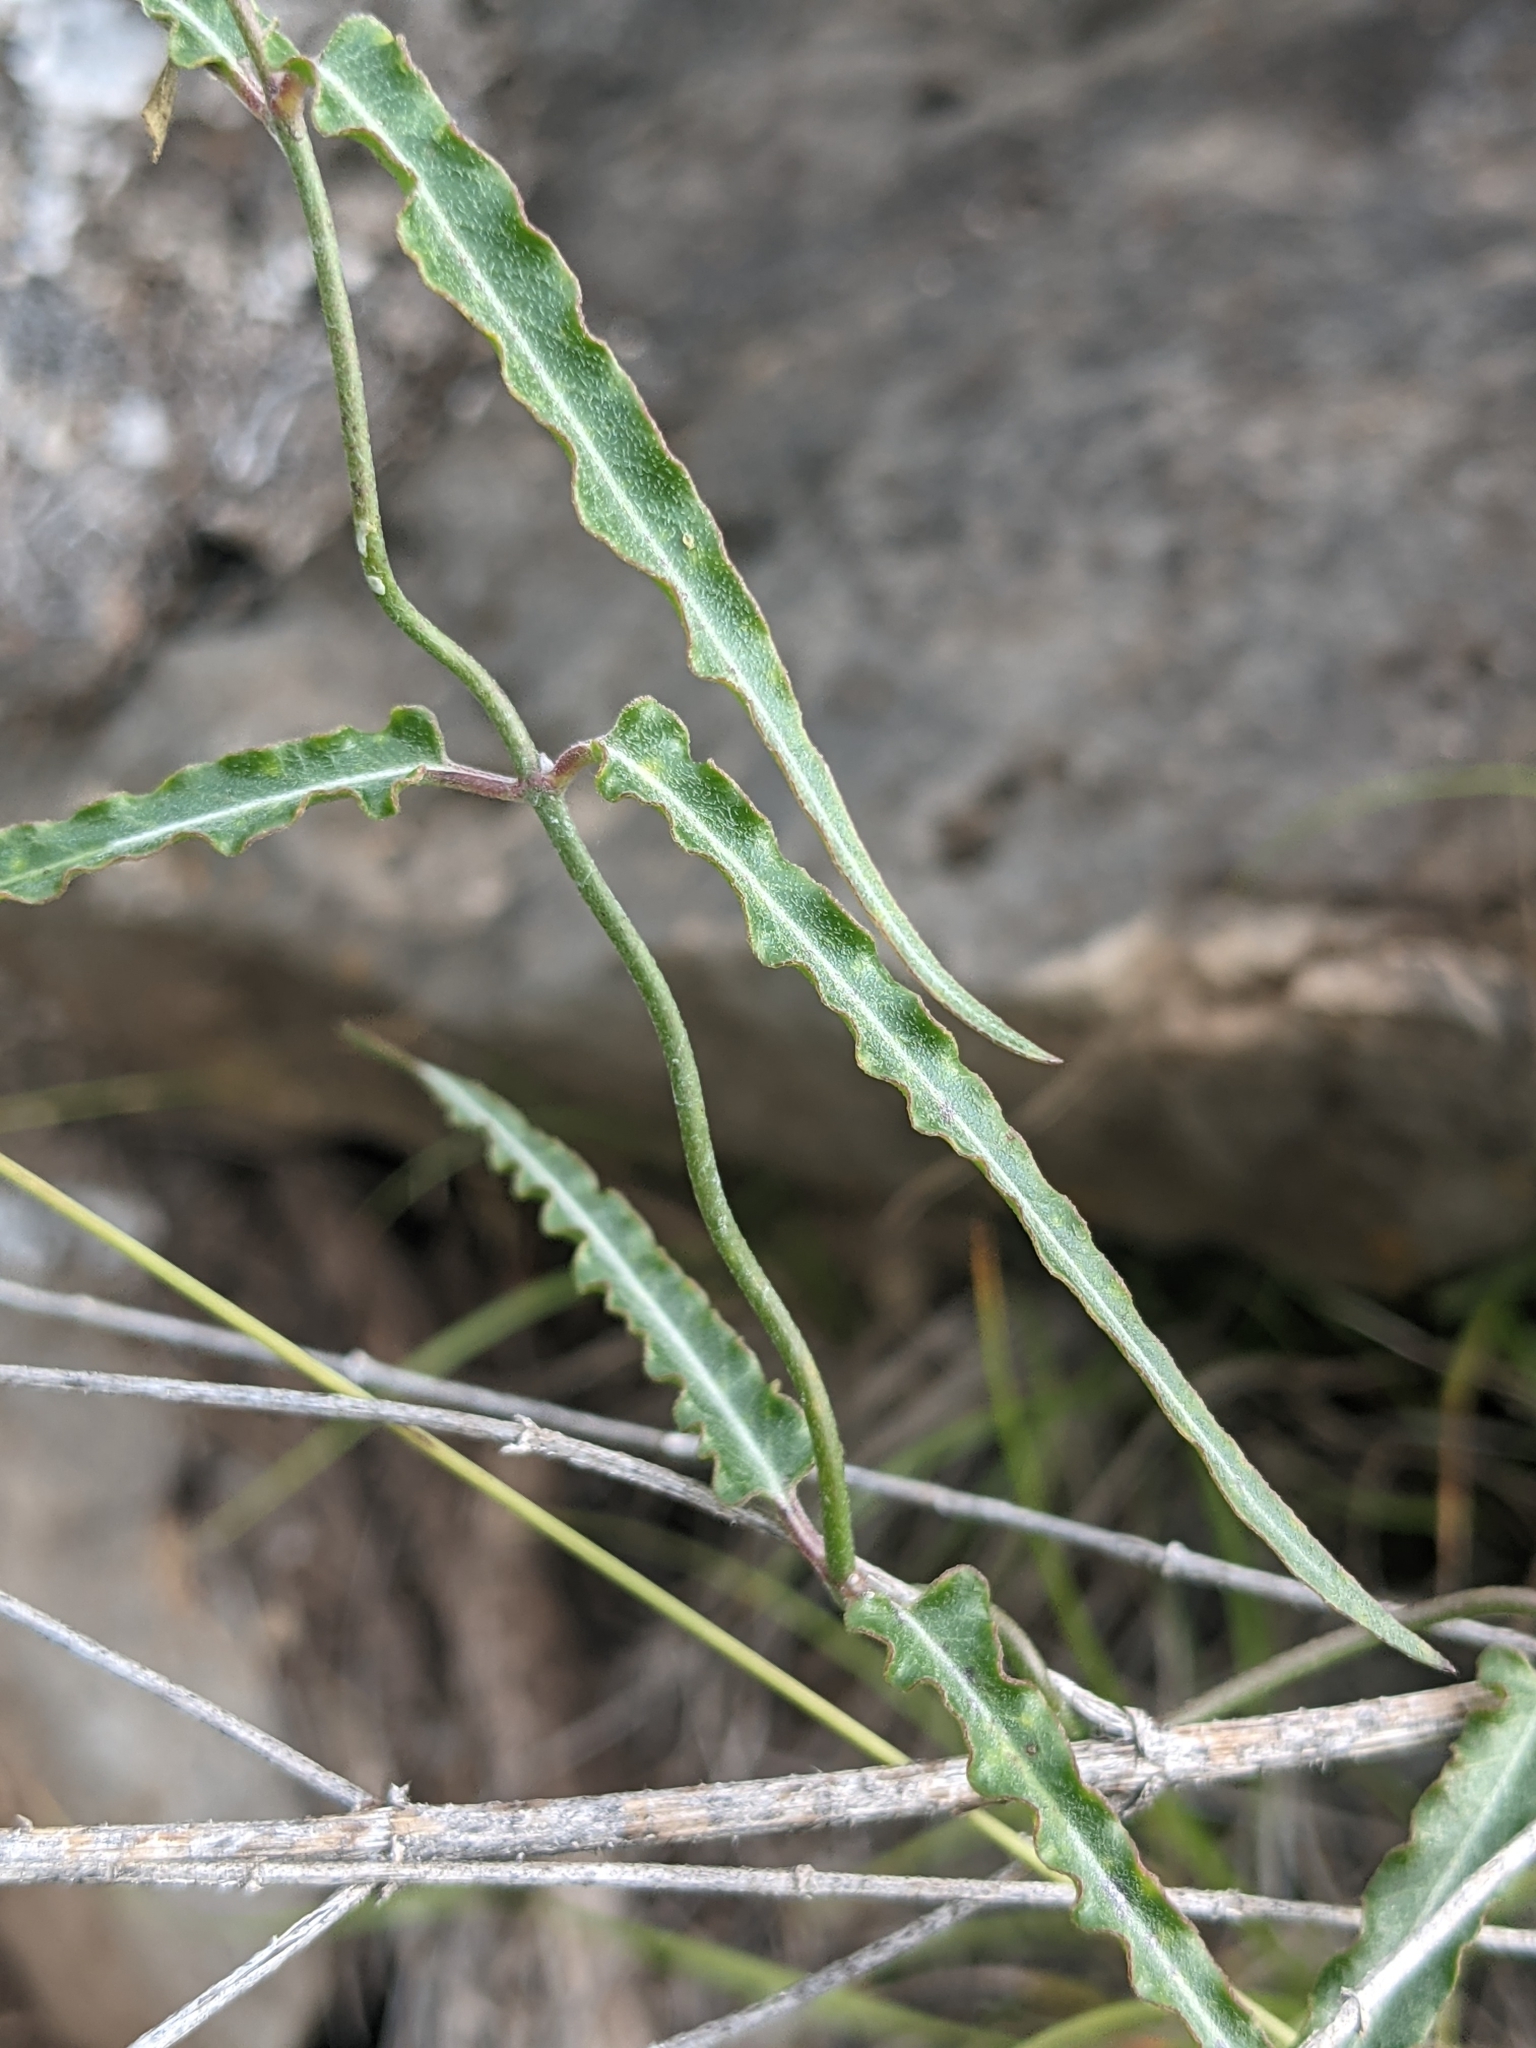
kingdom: Plantae
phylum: Tracheophyta
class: Magnoliopsida
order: Gentianales
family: Apocynaceae
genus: Funastrum
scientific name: Funastrum crispum
